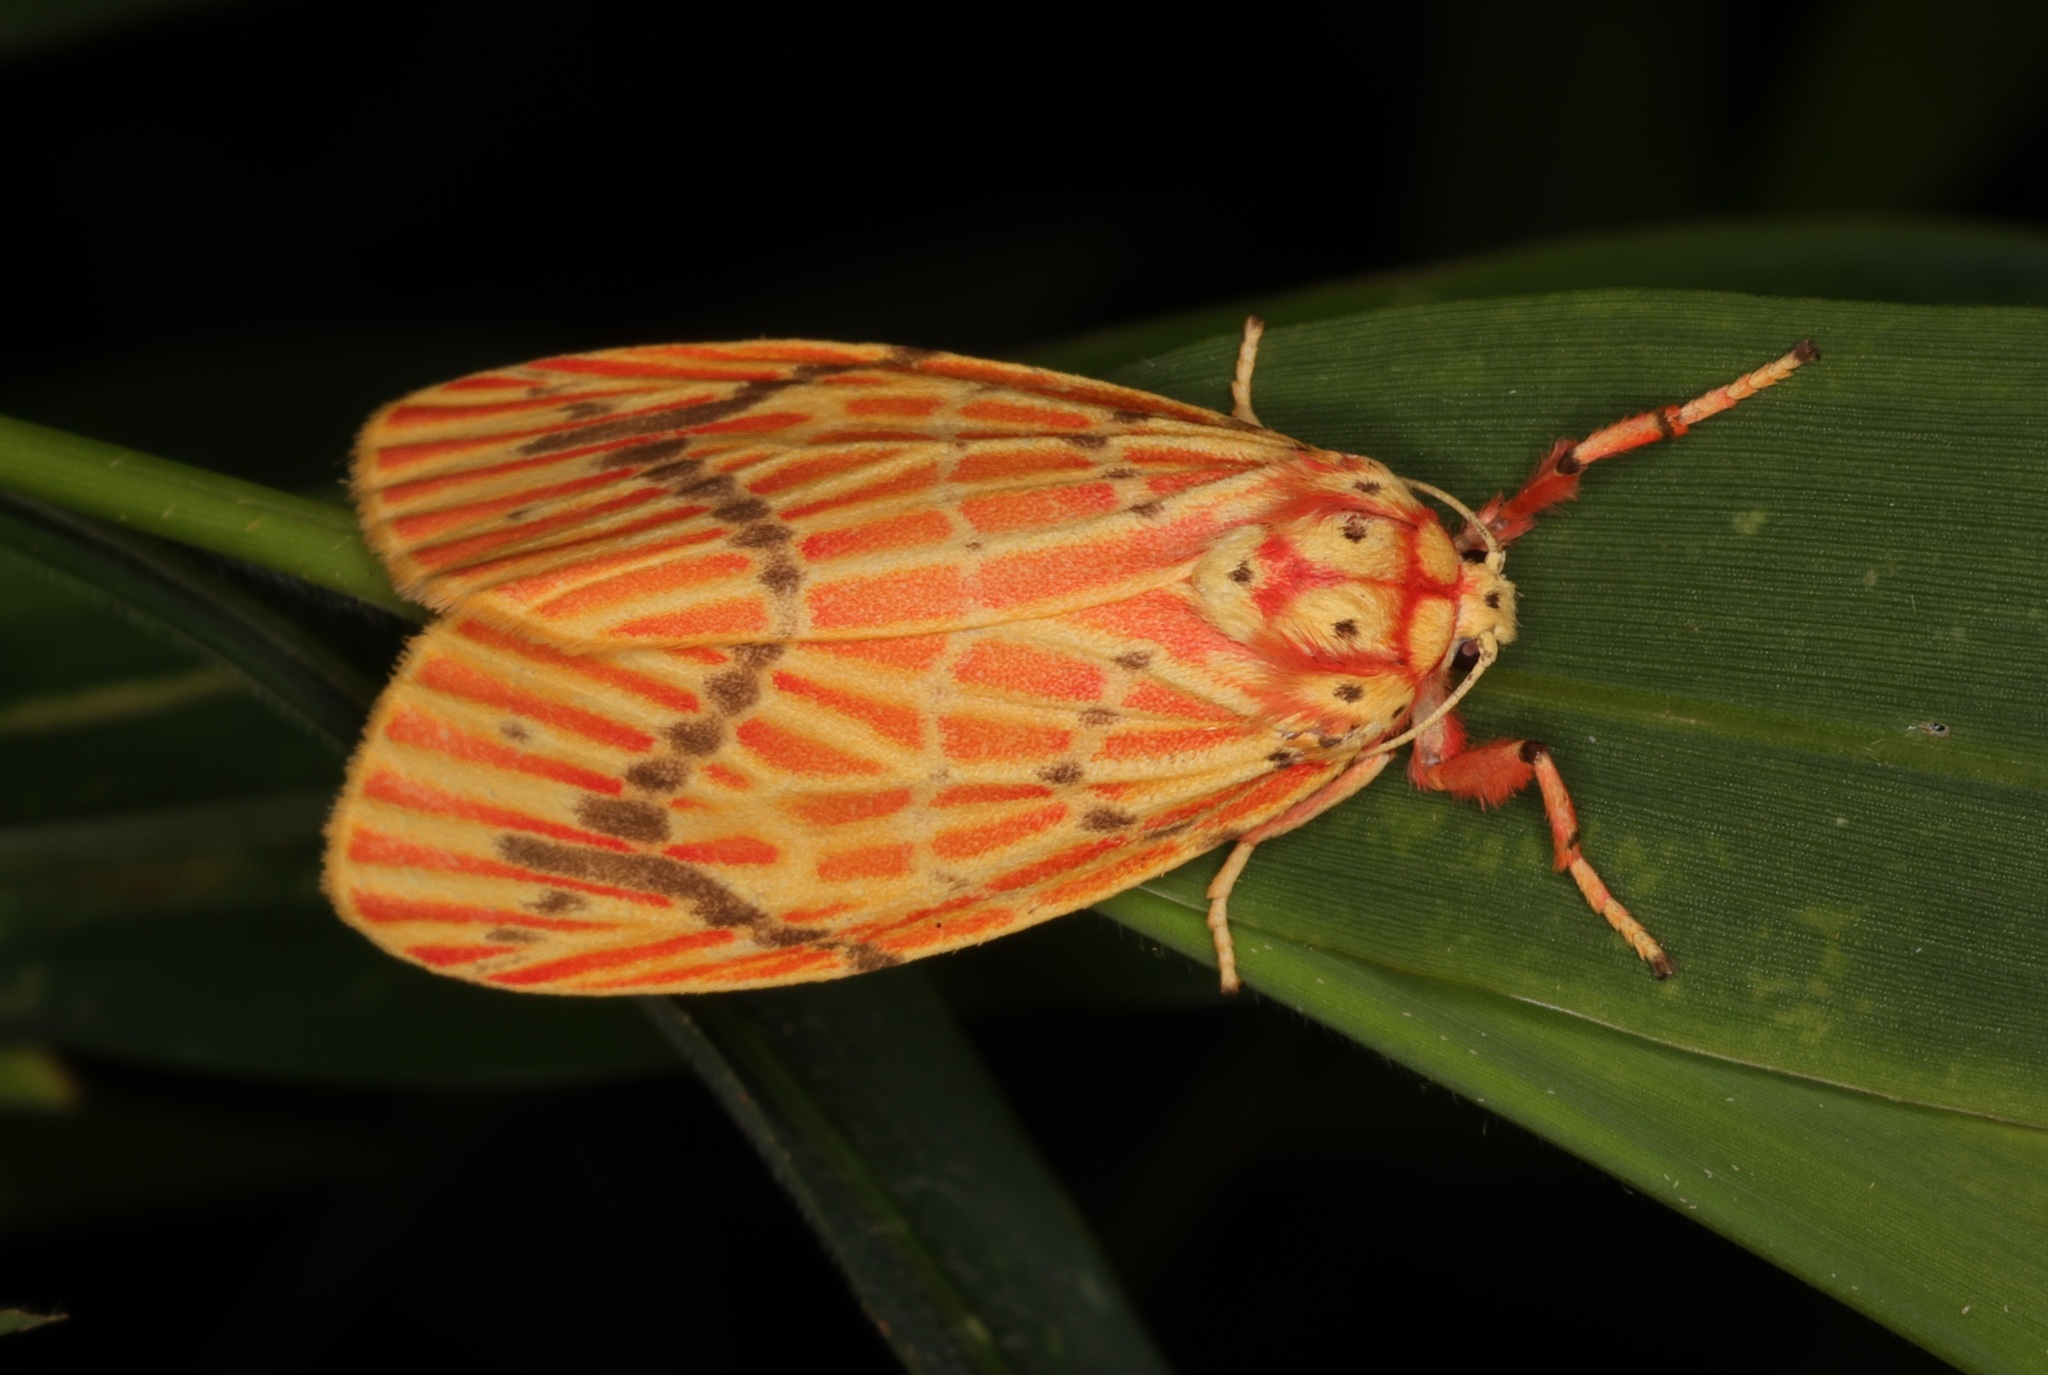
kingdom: Animalia
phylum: Arthropoda
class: Insecta
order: Lepidoptera
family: Erebidae
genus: Barsine
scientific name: Barsine striata
